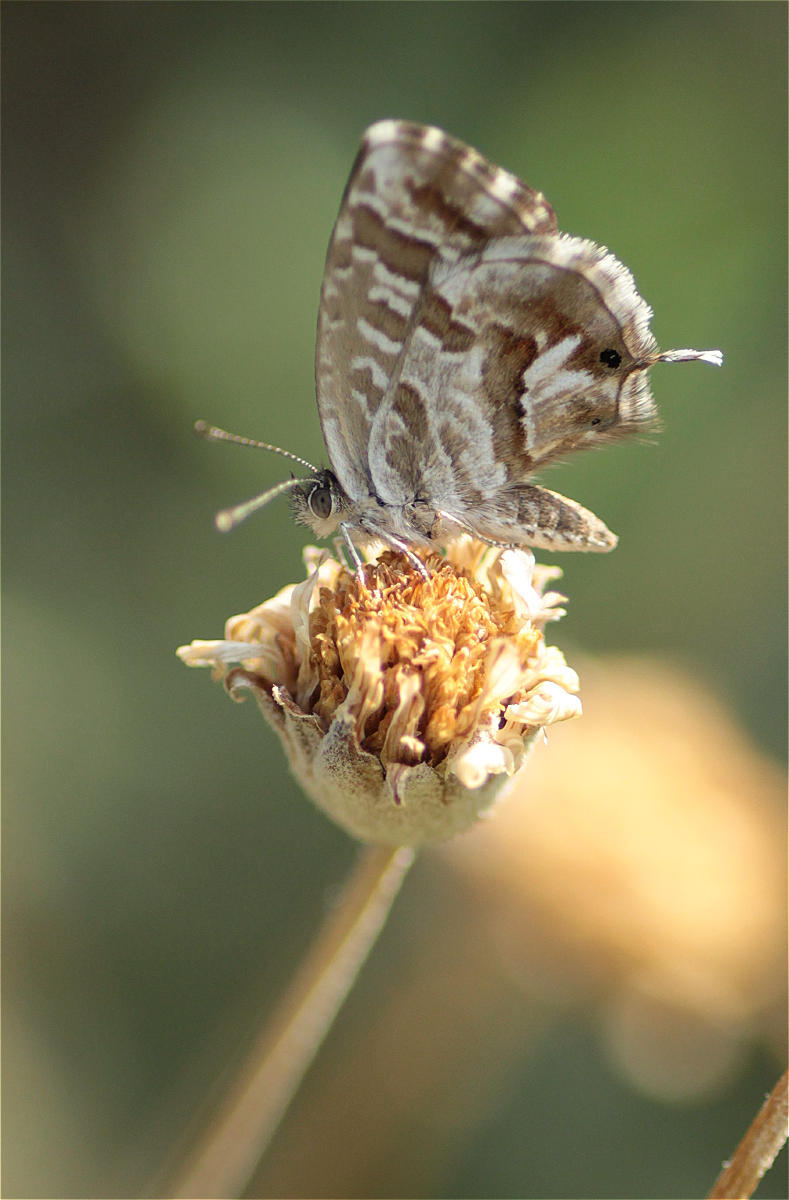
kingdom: Animalia
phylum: Arthropoda
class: Insecta
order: Lepidoptera
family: Lycaenidae
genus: Cacyreus
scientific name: Cacyreus marshalli
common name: Geranium bronze
